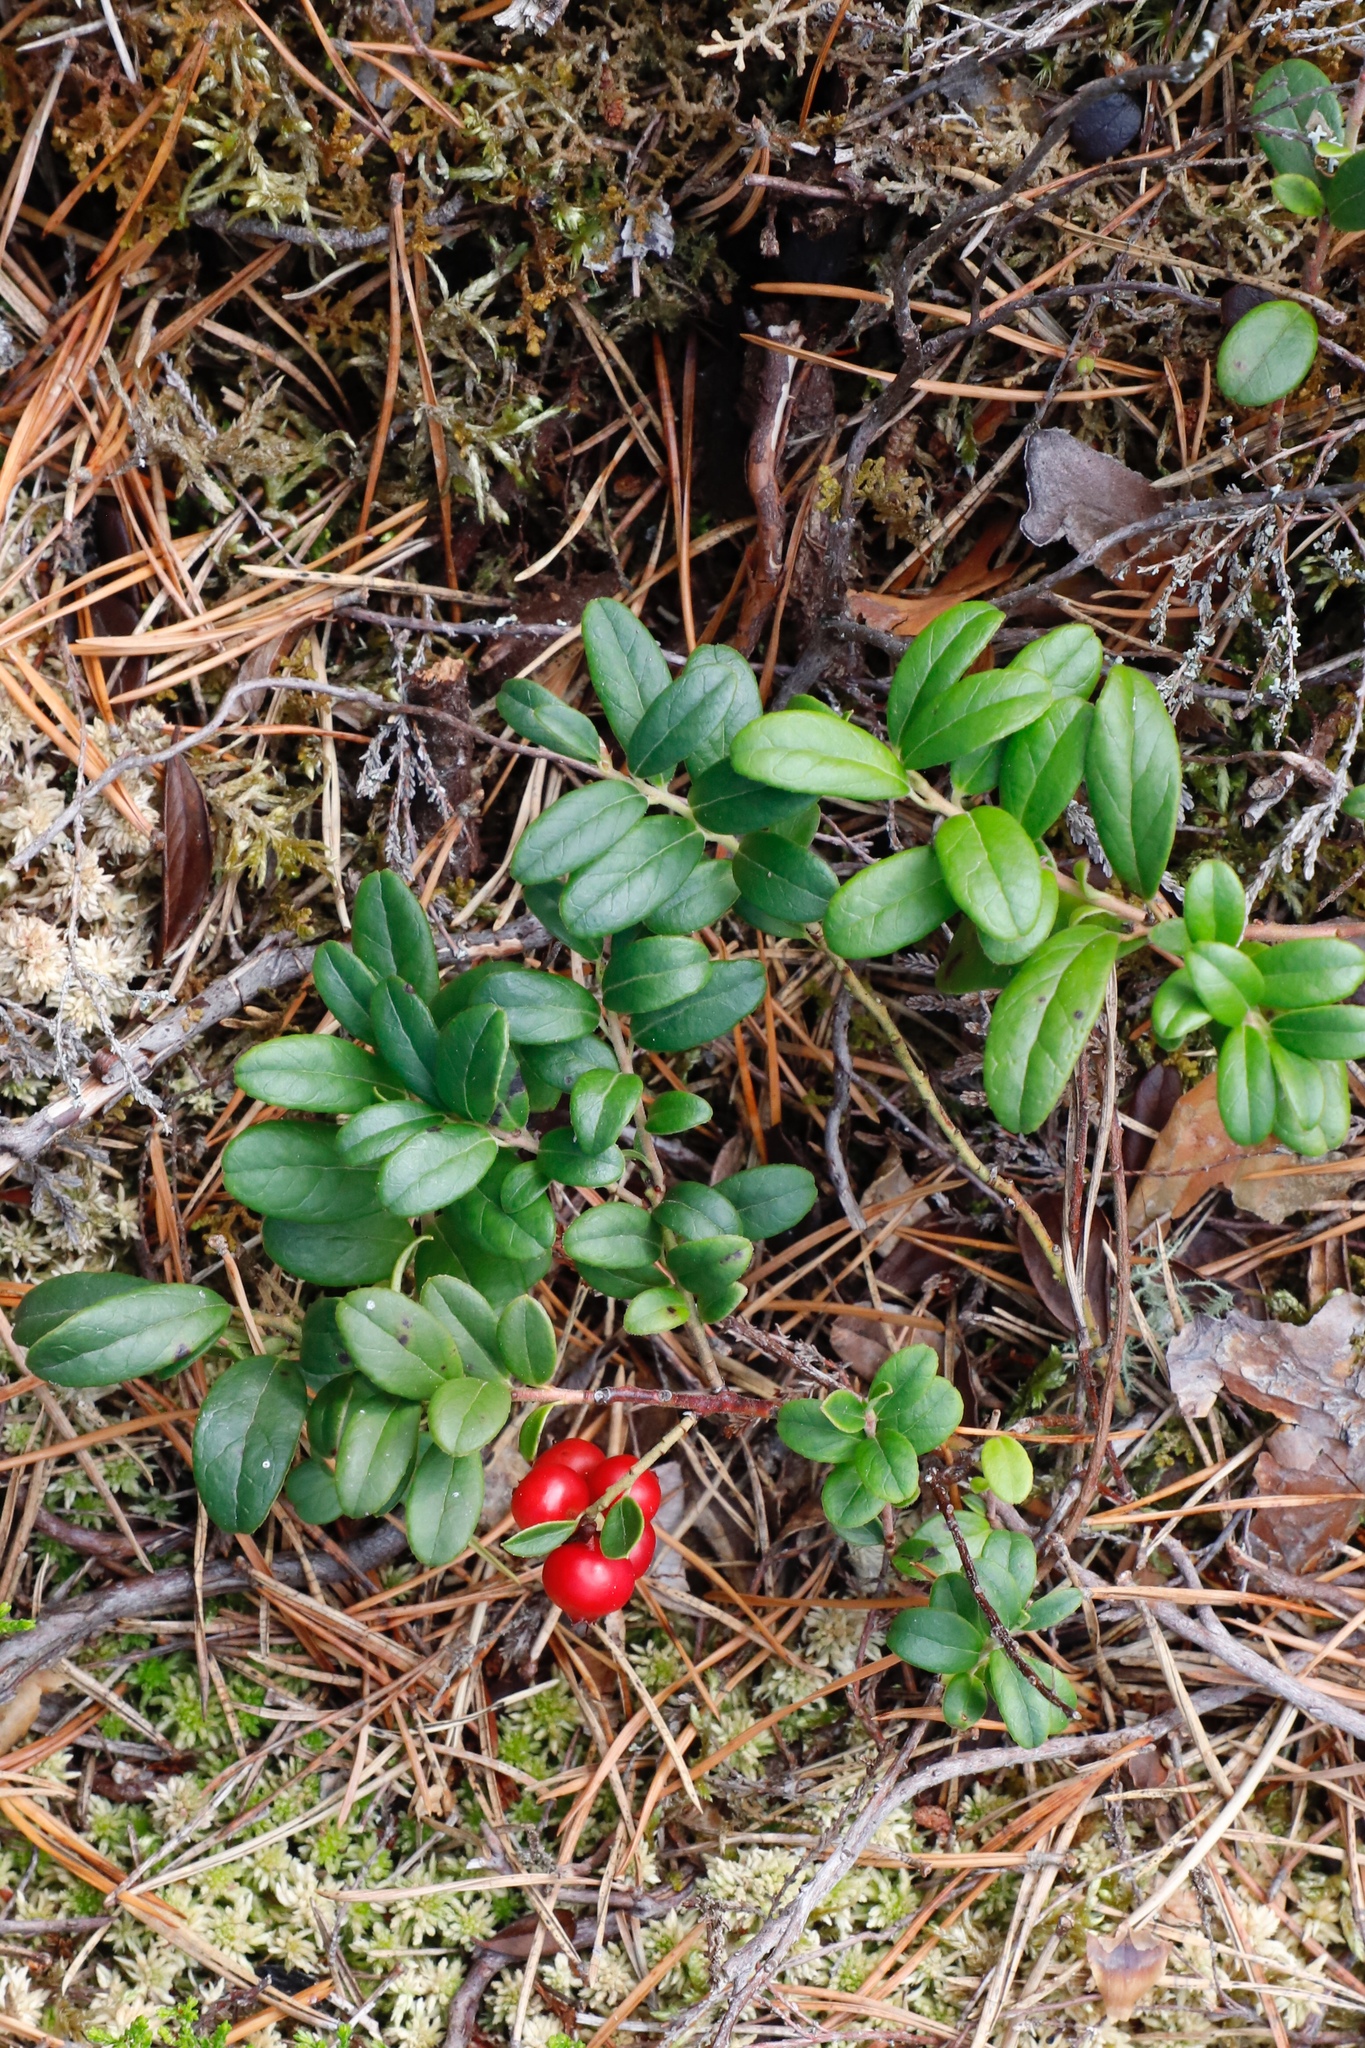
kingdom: Plantae
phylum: Tracheophyta
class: Magnoliopsida
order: Ericales
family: Ericaceae
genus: Vaccinium
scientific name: Vaccinium vitis-idaea
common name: Cowberry
